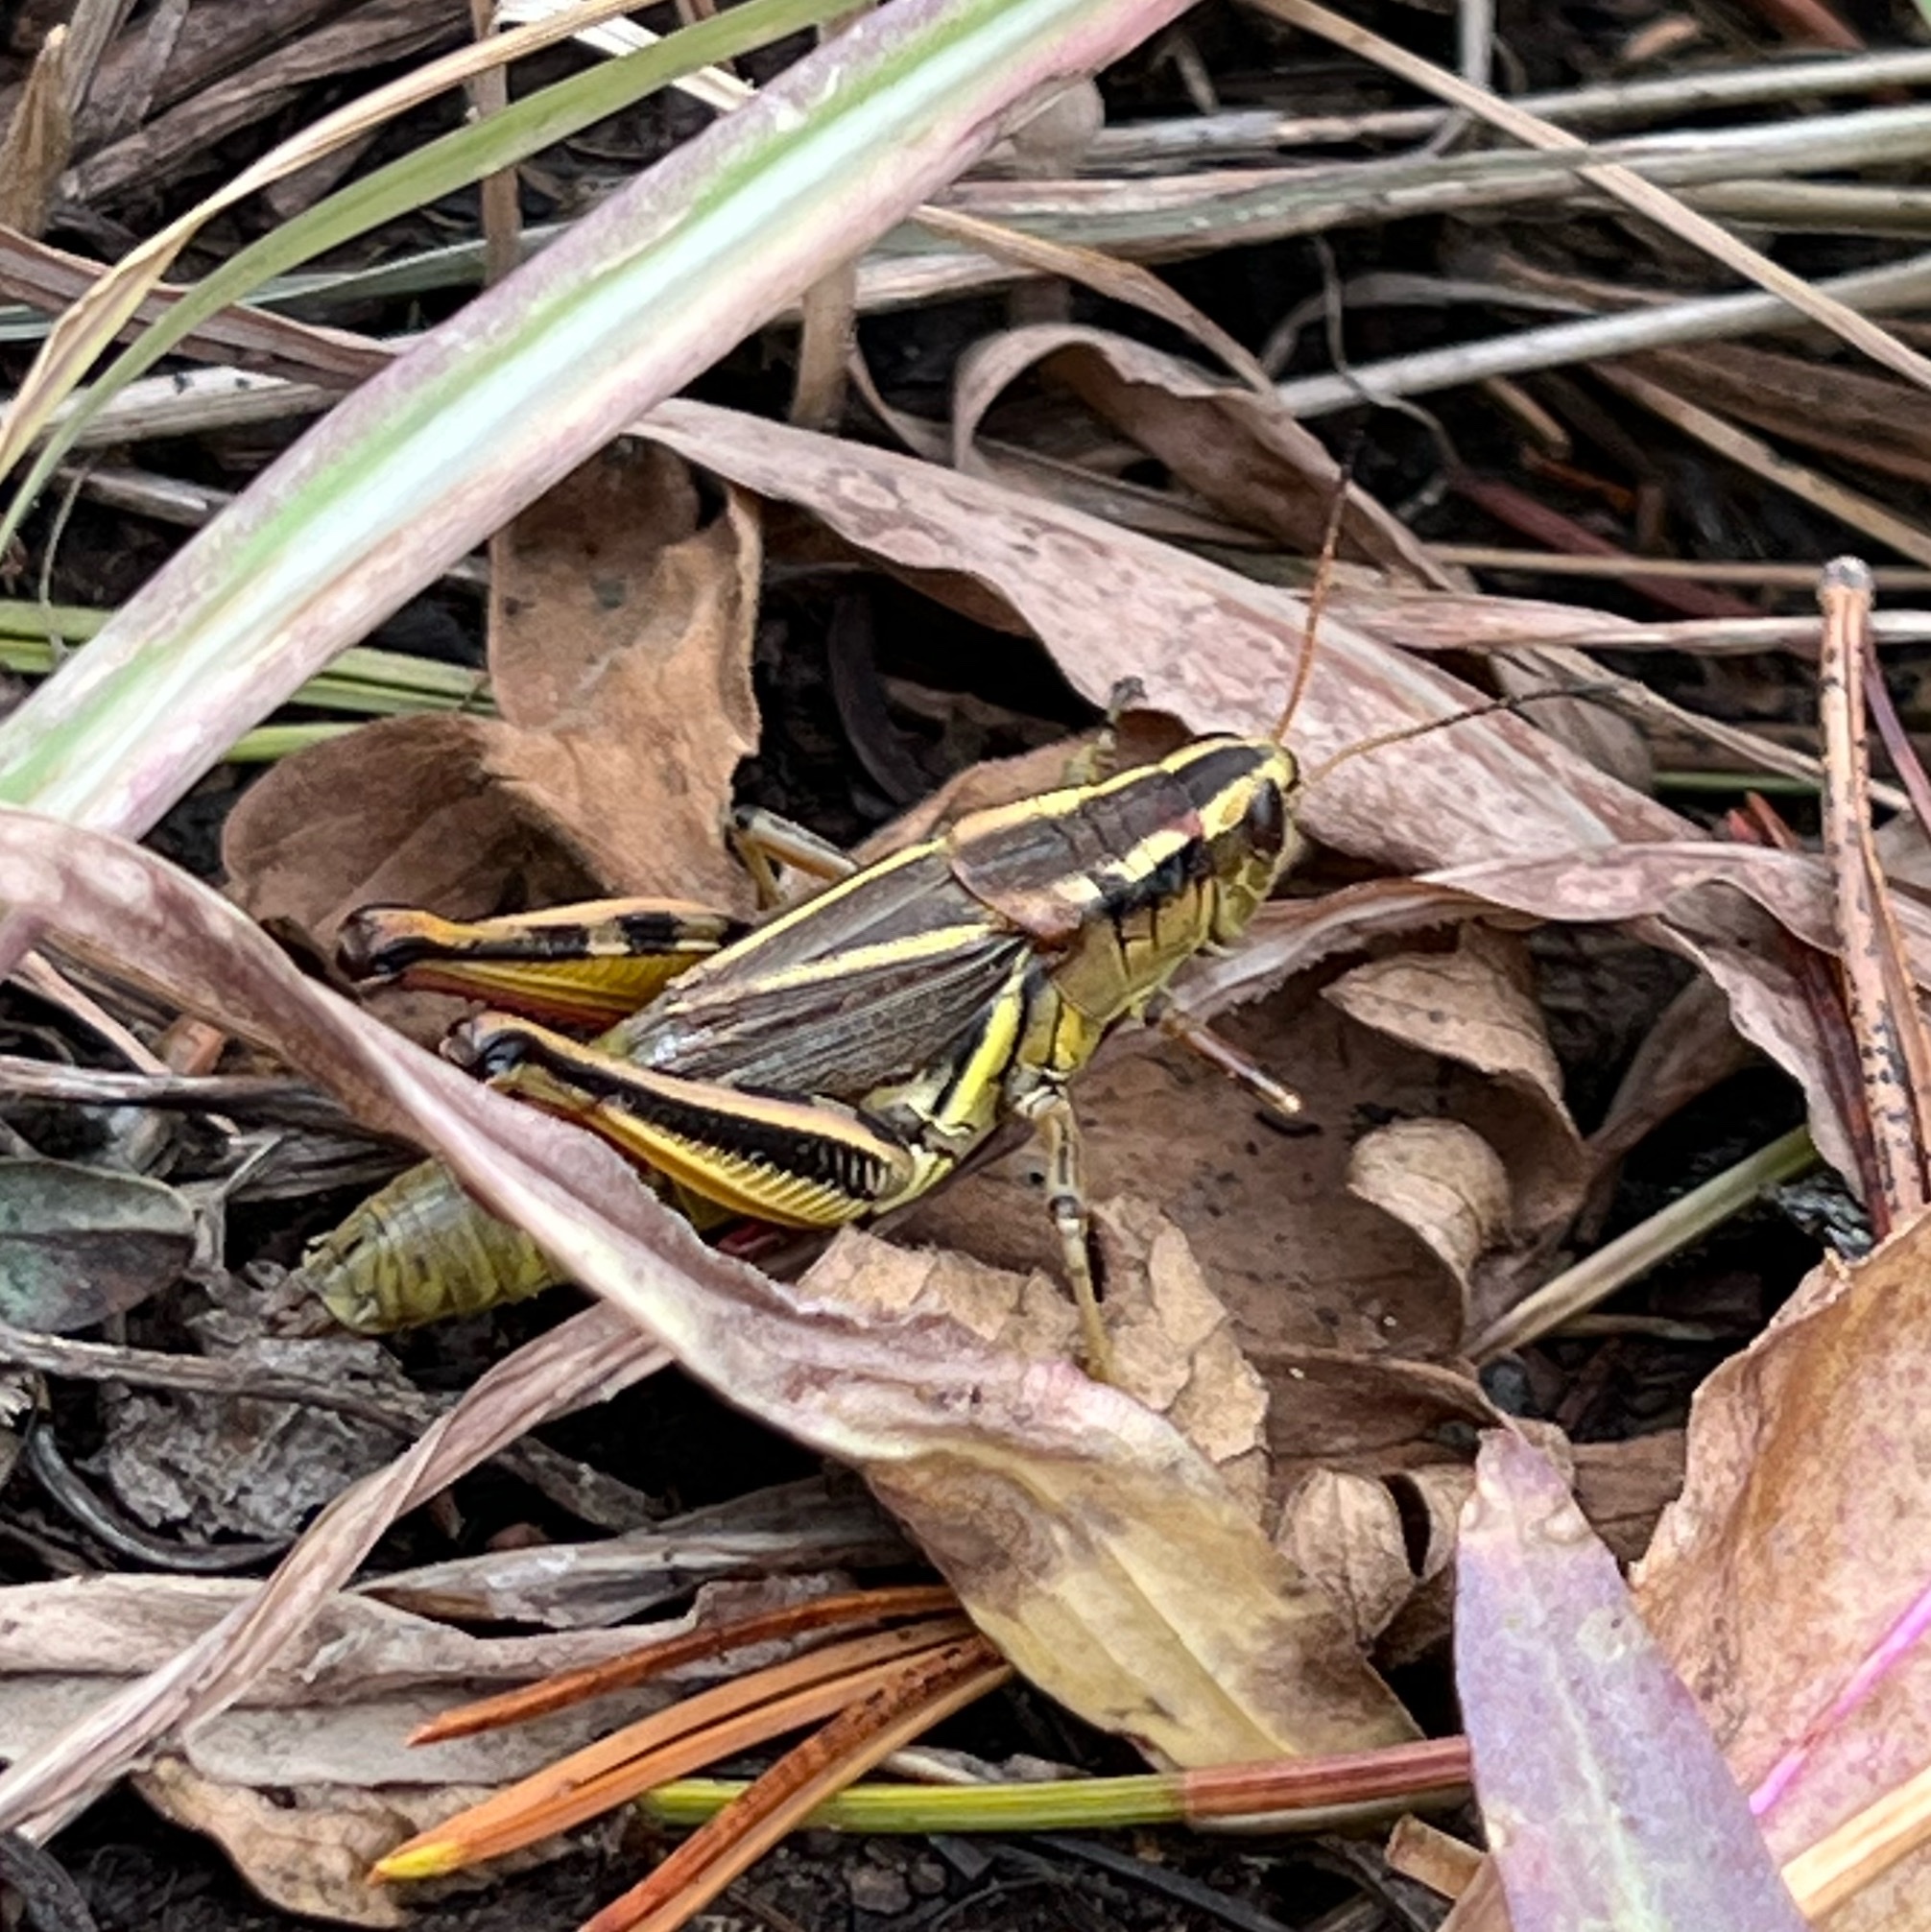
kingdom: Animalia
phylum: Arthropoda
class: Insecta
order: Orthoptera
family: Acrididae
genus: Melanoplus
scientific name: Melanoplus bivittatus
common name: Two-striped grasshopper
